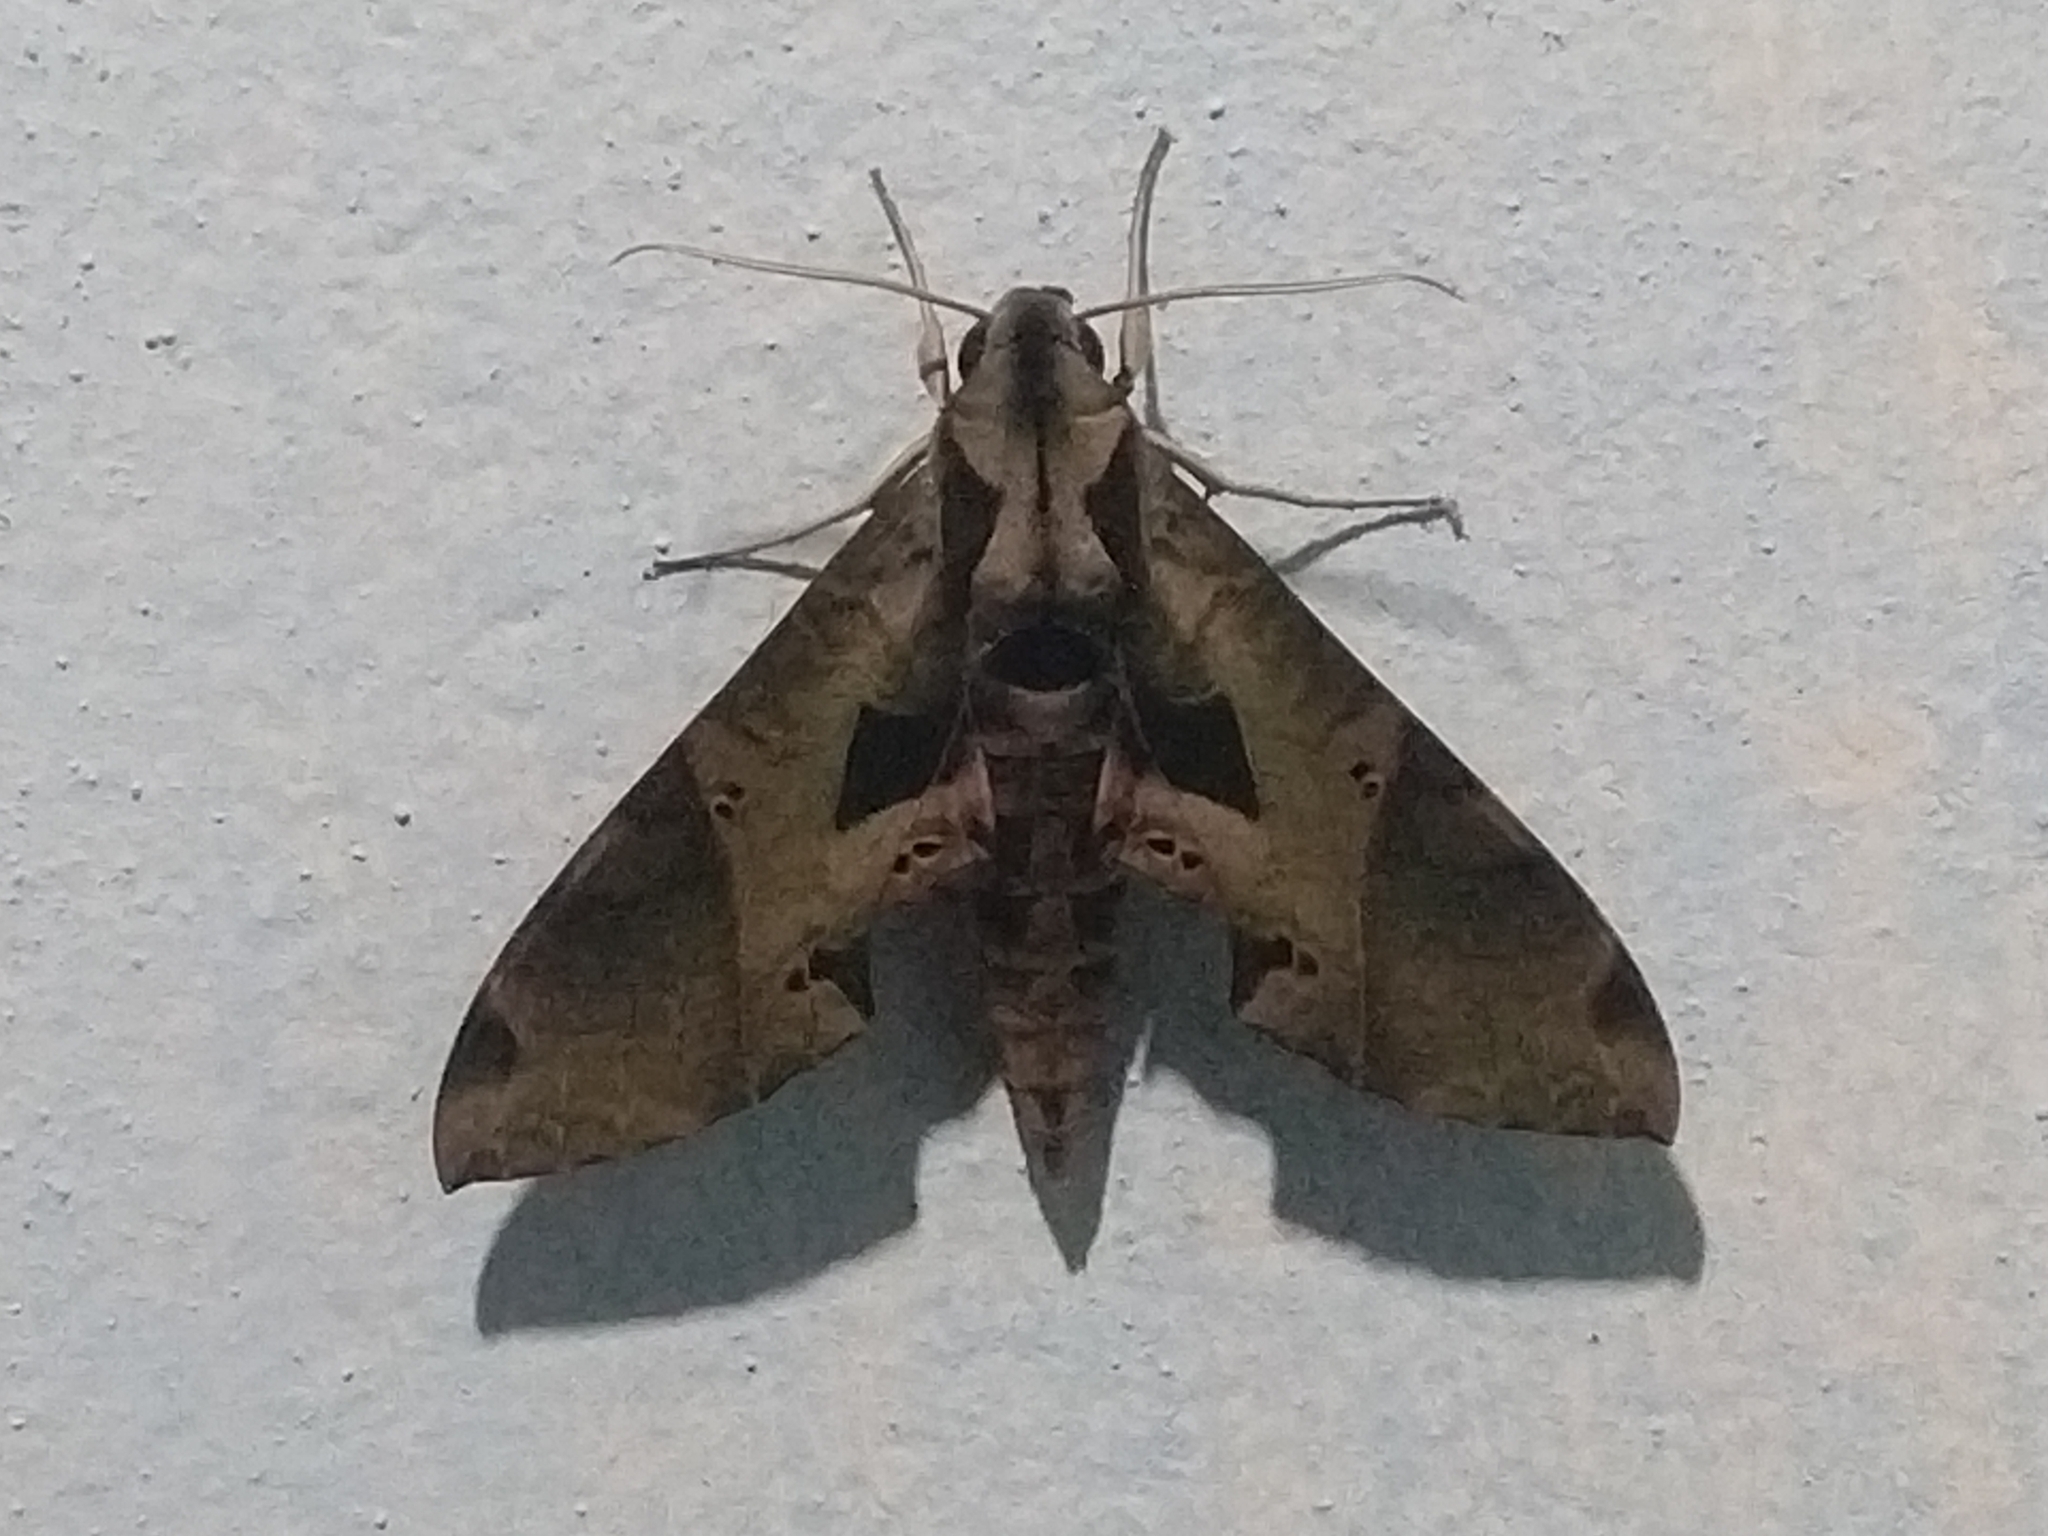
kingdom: Animalia
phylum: Arthropoda
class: Insecta
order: Lepidoptera
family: Sphingidae
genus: Eumorpha
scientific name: Eumorpha satellitia
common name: Satellite sphinx
